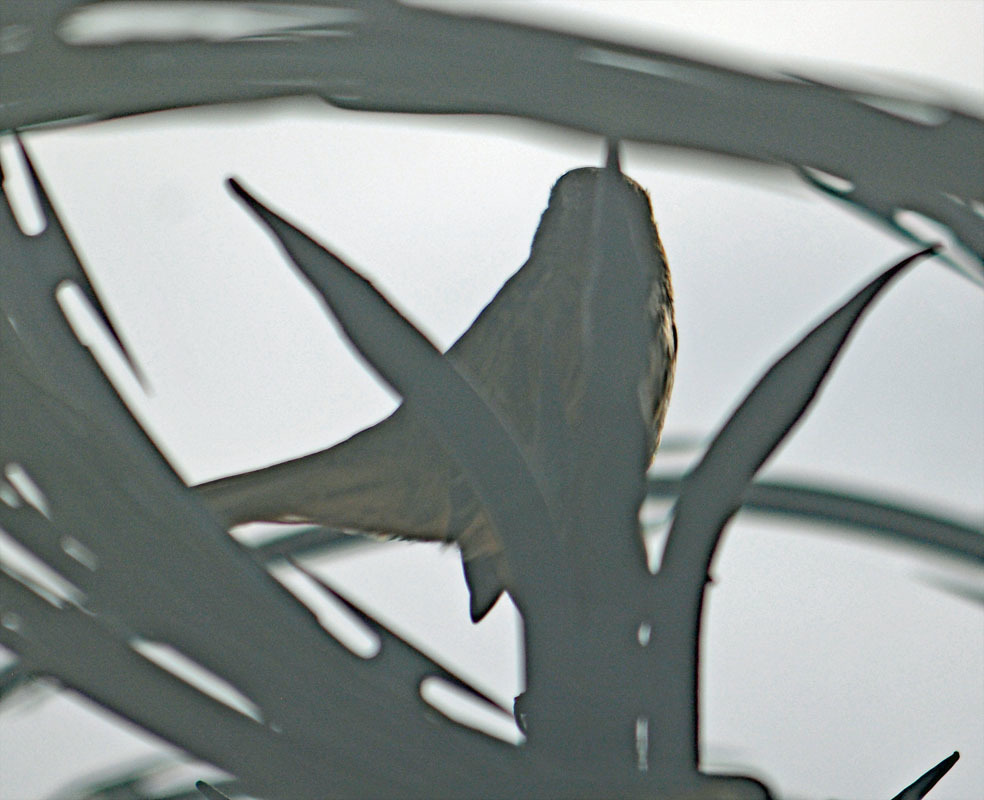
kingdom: Animalia
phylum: Chordata
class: Aves
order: Passeriformes
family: Passerellidae
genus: Melospiza
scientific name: Melospiza melodia
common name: Song sparrow
